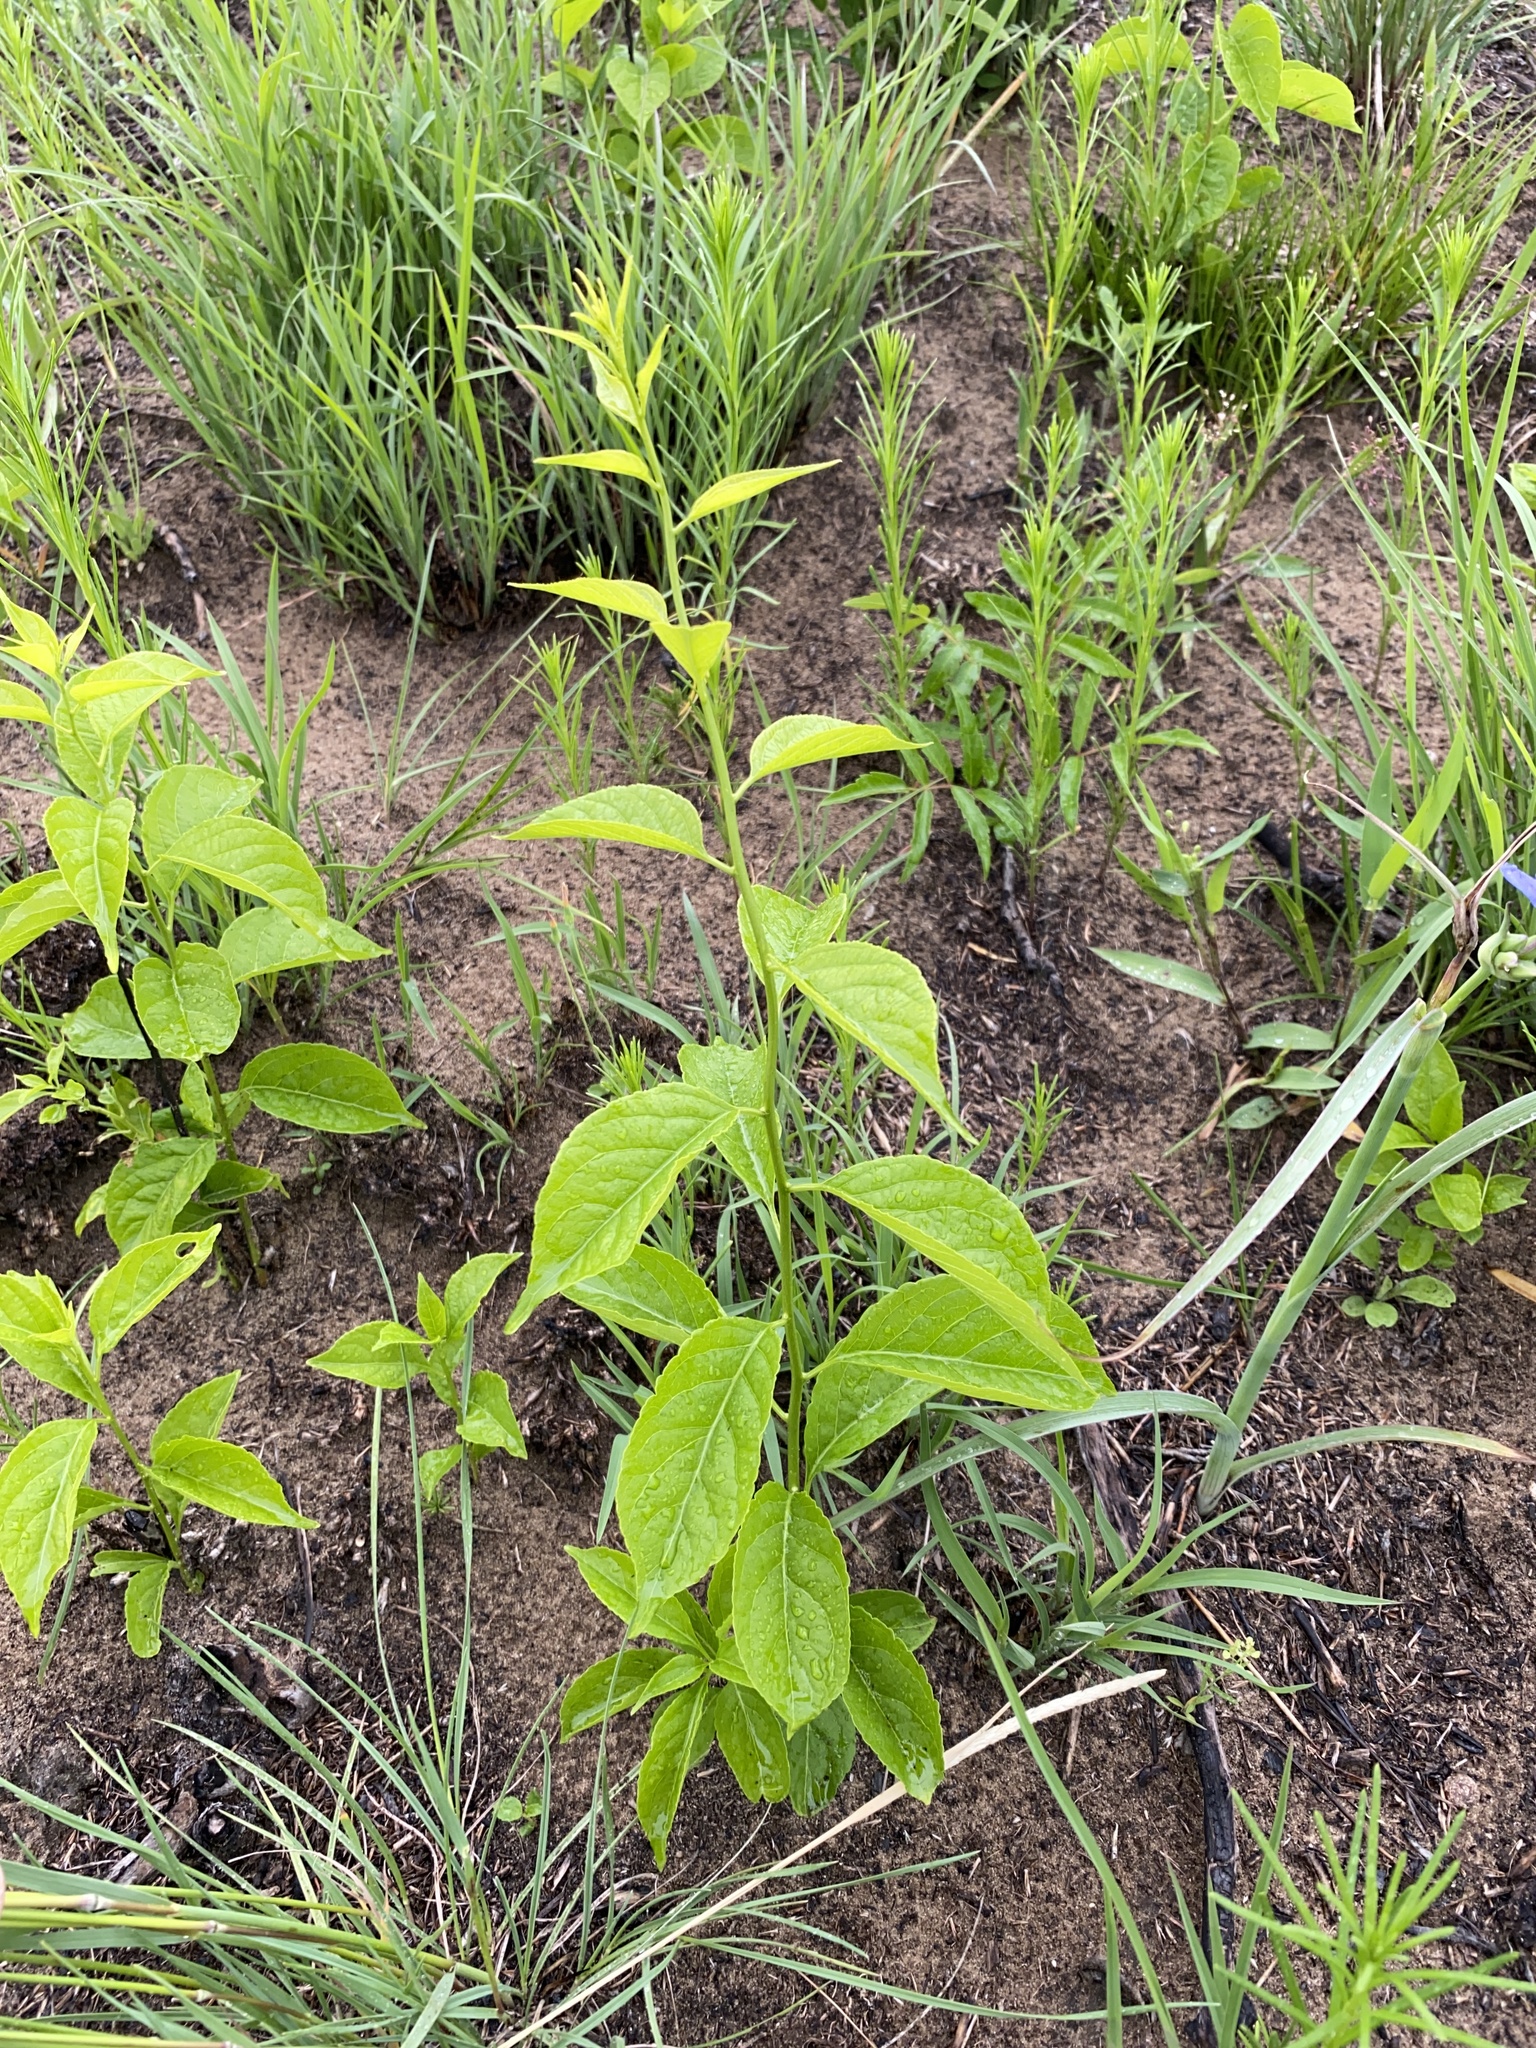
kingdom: Plantae
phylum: Tracheophyta
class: Magnoliopsida
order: Celastrales
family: Celastraceae
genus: Celastrus
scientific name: Celastrus scandens
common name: American bittersweet
